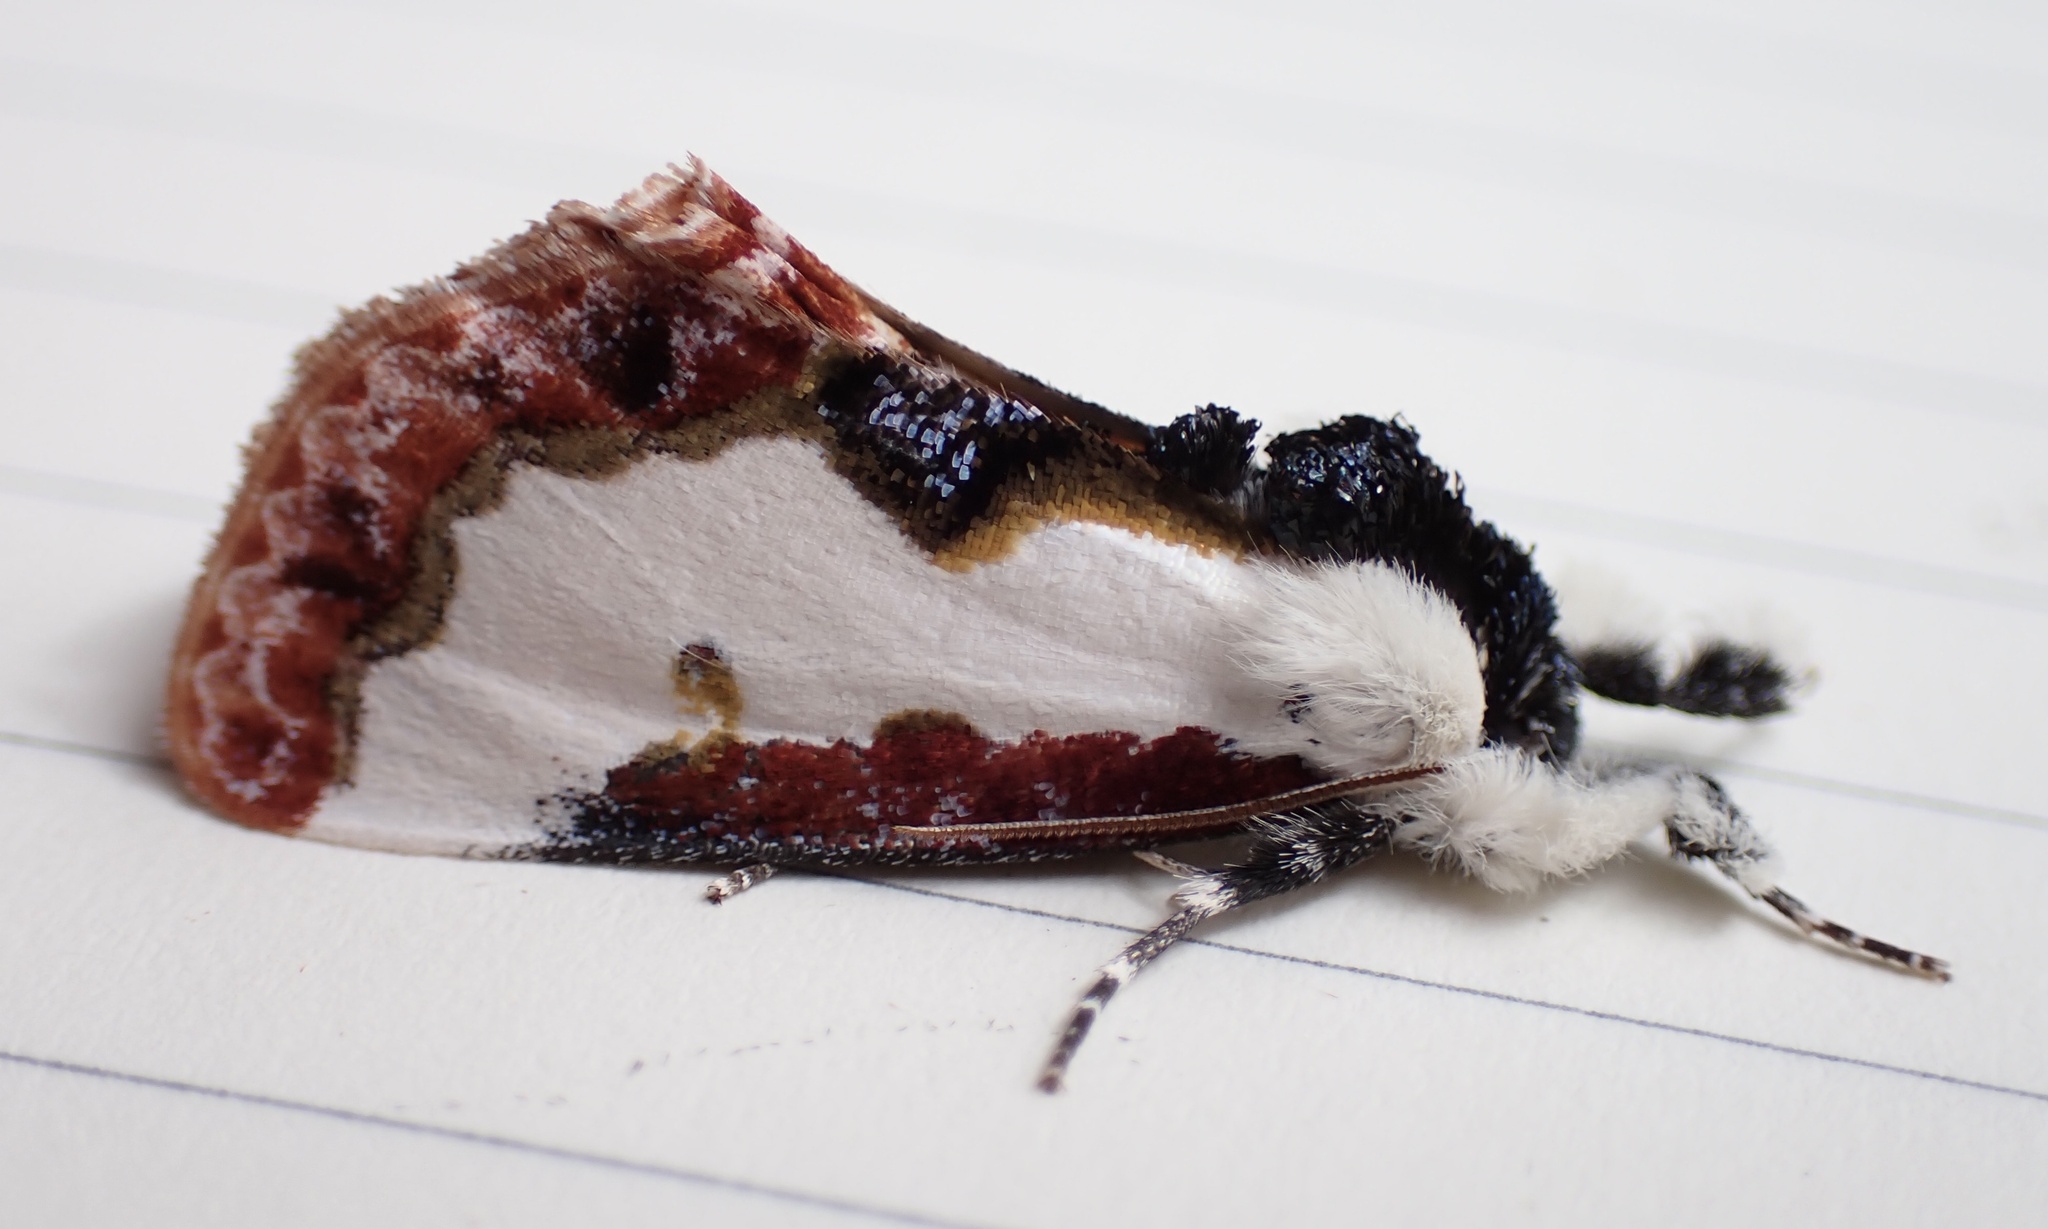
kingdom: Animalia
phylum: Arthropoda
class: Insecta
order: Lepidoptera
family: Noctuidae
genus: Eudryas
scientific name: Eudryas unio
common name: Pearly wood-nymph
